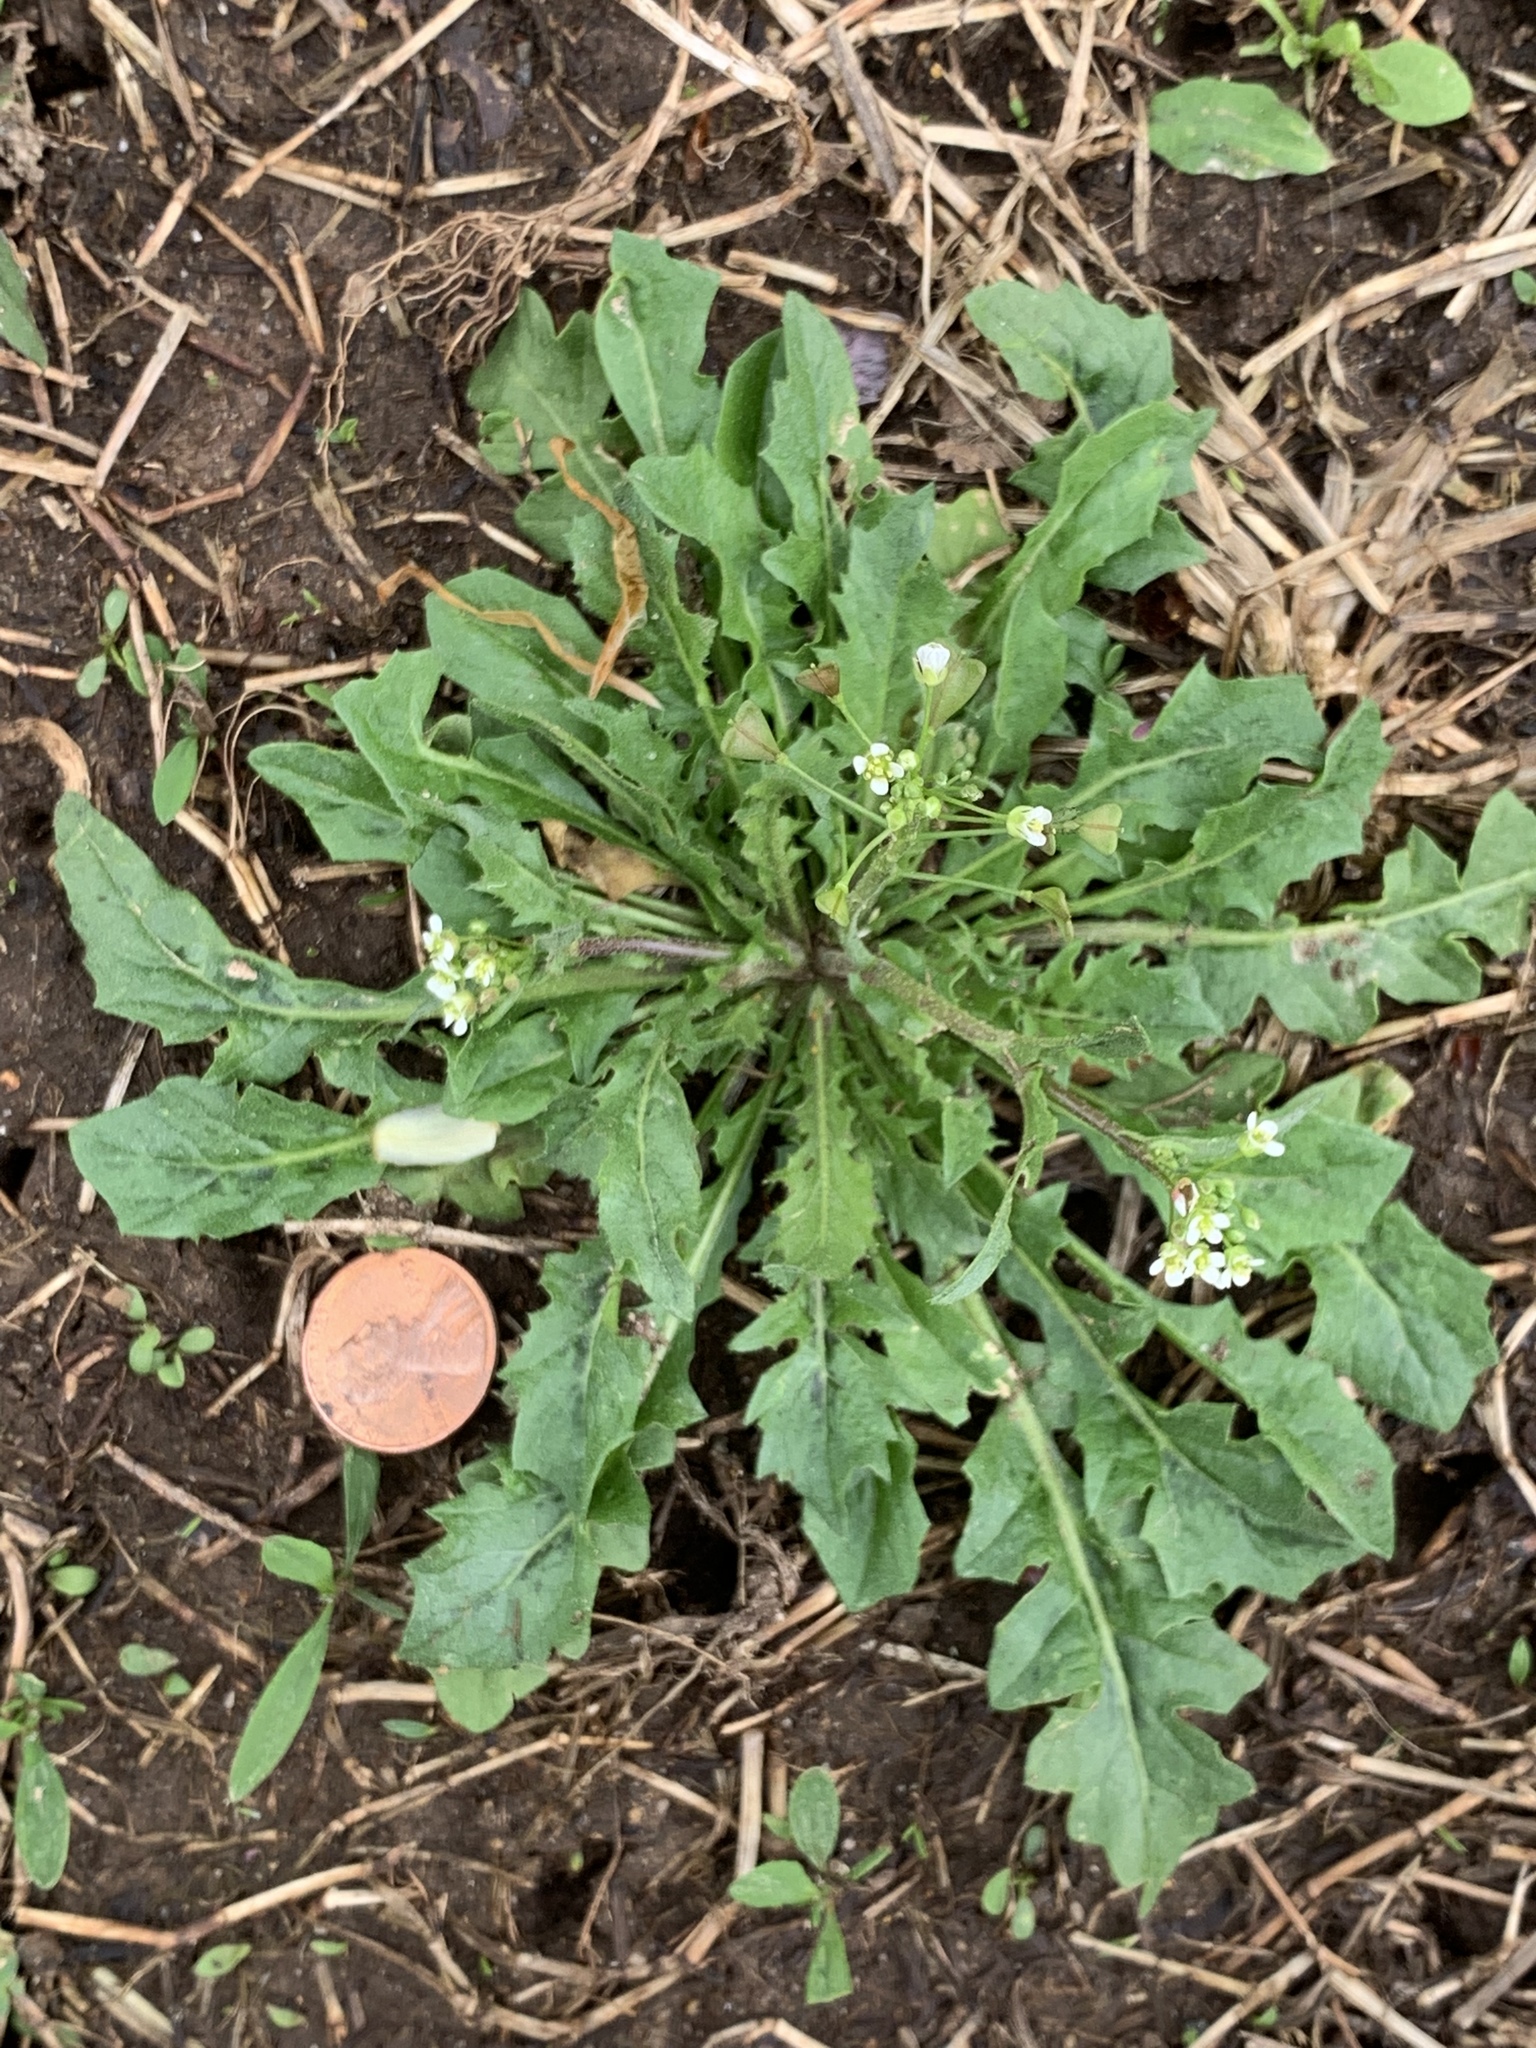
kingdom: Plantae
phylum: Tracheophyta
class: Magnoliopsida
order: Brassicales
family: Brassicaceae
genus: Capsella
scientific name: Capsella bursa-pastoris
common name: Shepherd's purse
